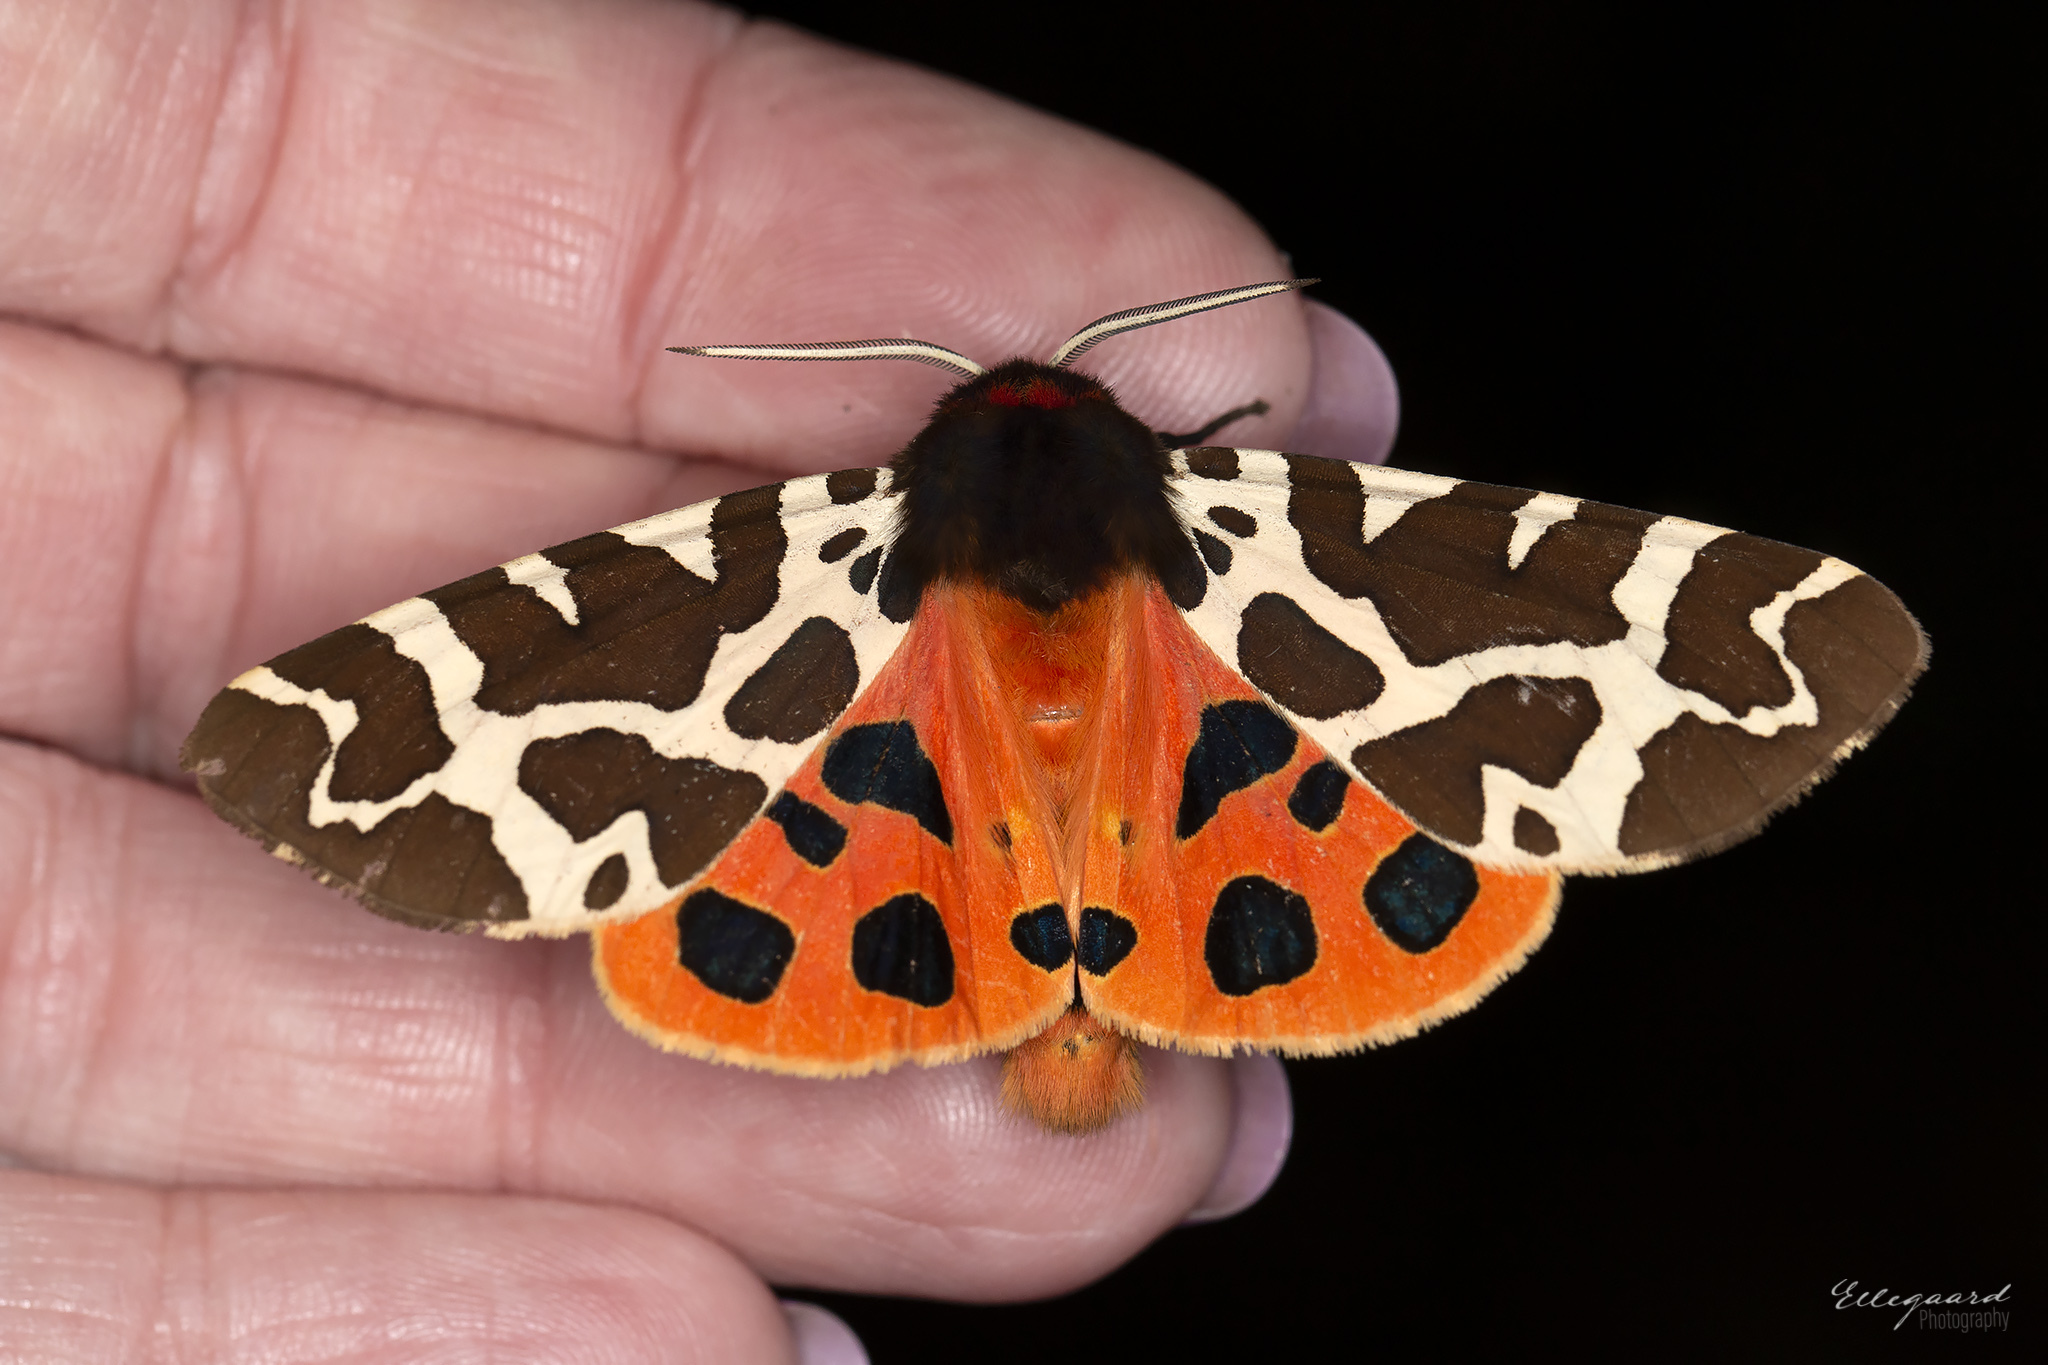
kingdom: Animalia
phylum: Arthropoda
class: Insecta
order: Lepidoptera
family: Erebidae
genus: Arctia
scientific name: Arctia caja
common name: Garden tiger
